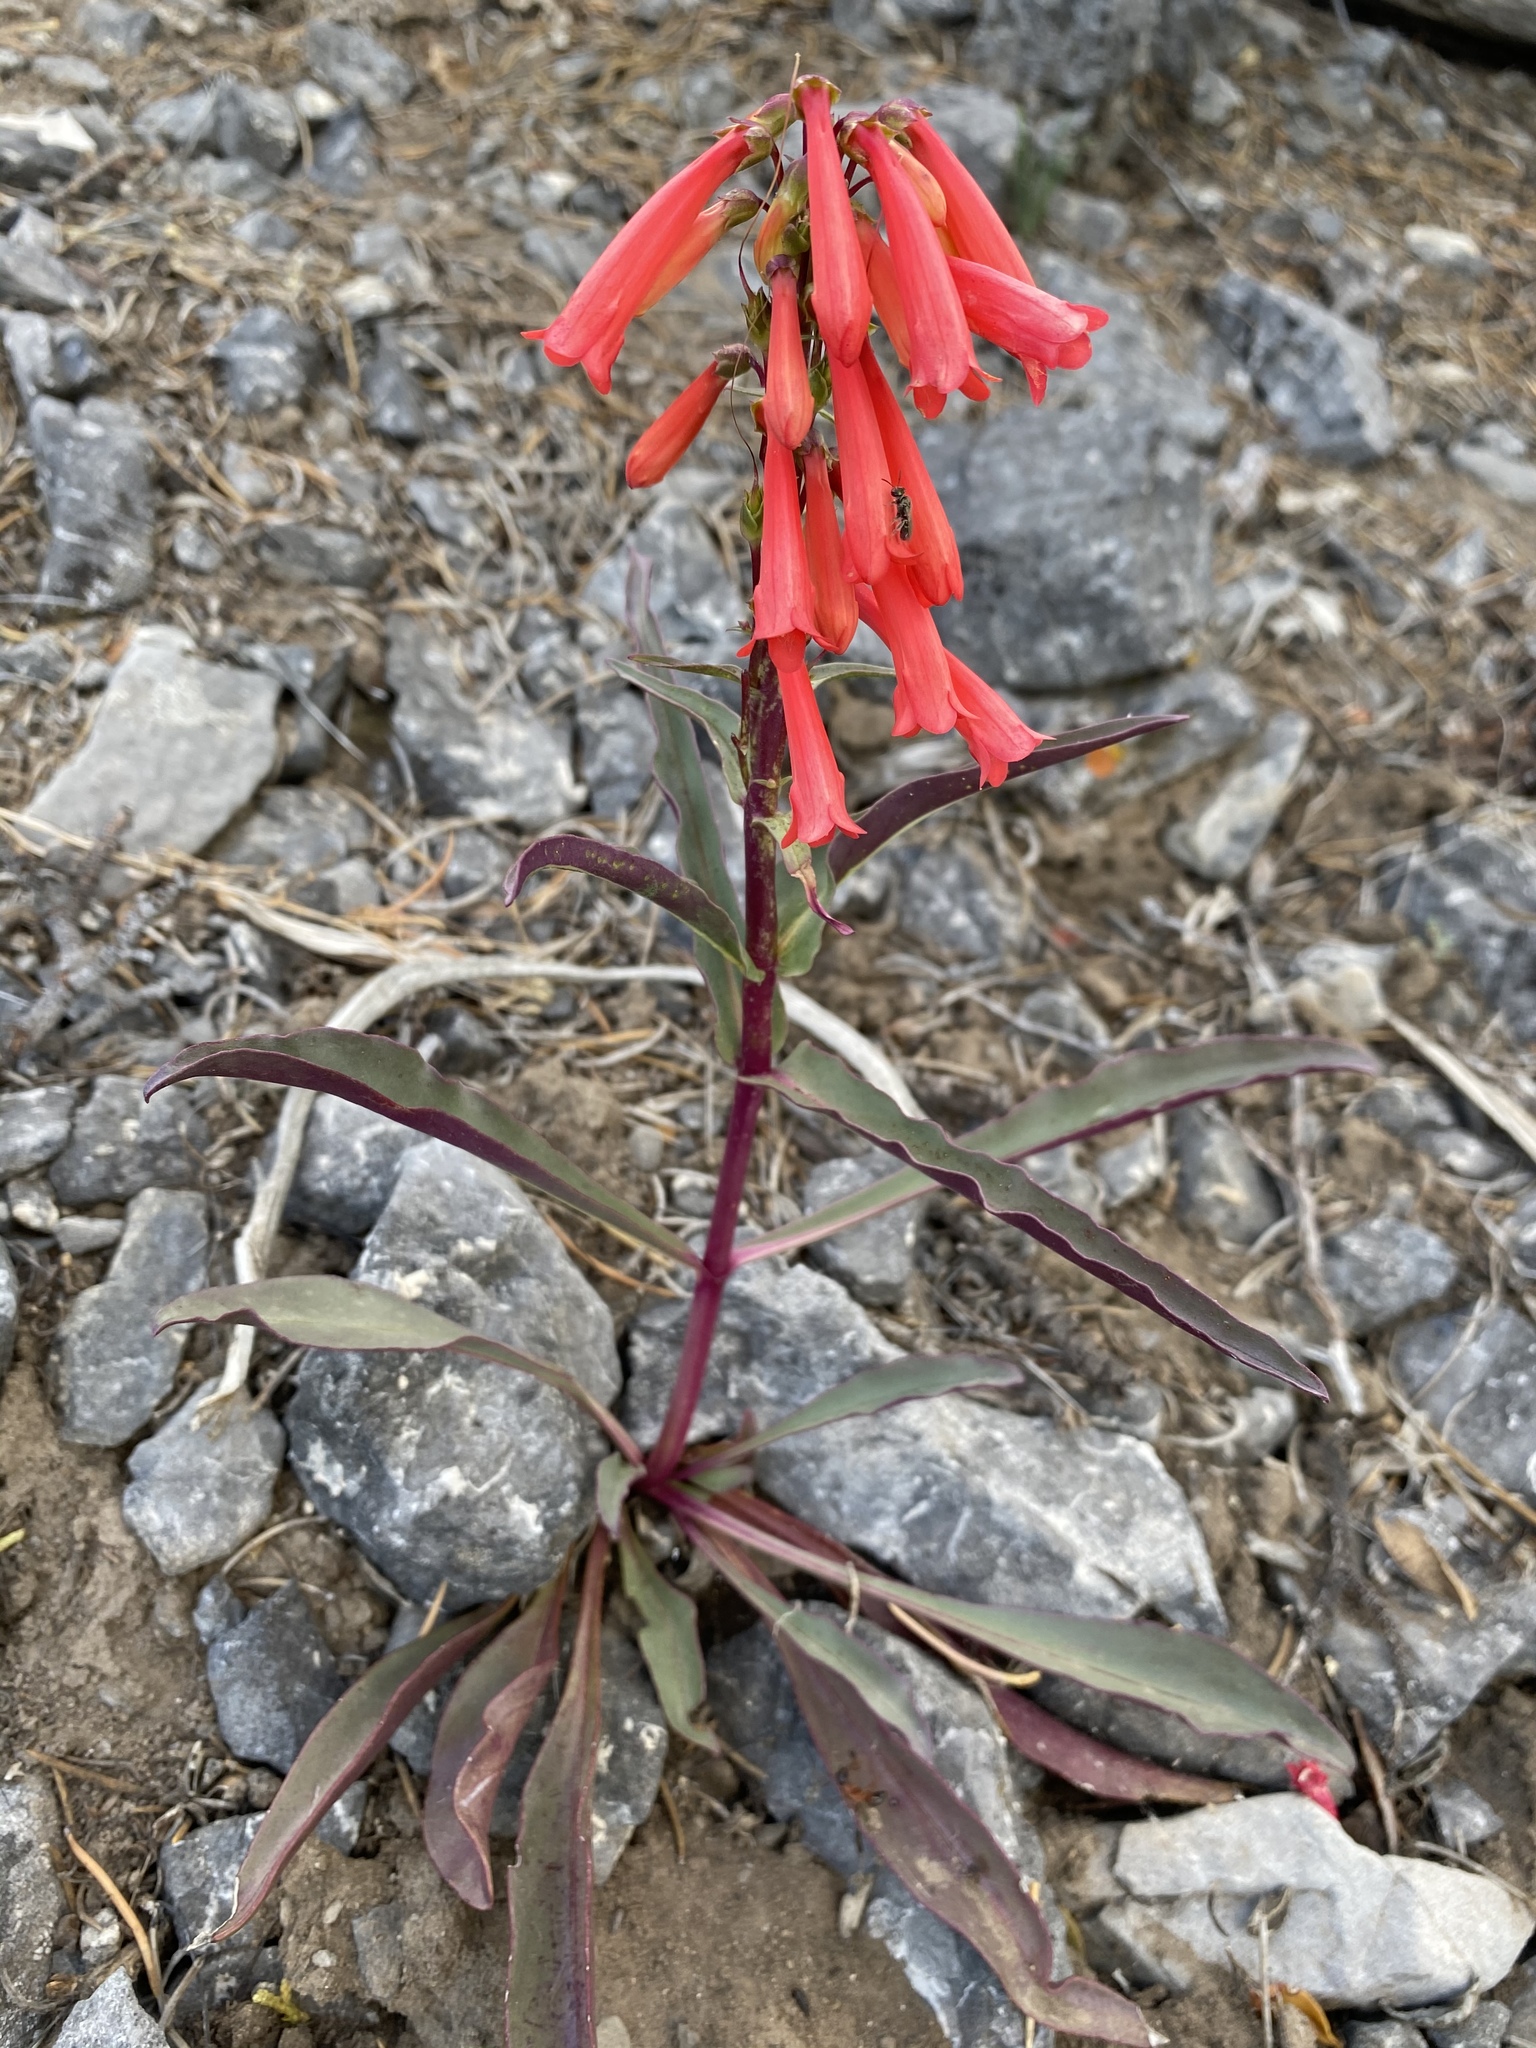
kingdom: Plantae
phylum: Tracheophyta
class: Magnoliopsida
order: Lamiales
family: Plantaginaceae
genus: Penstemon
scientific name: Penstemon eatonii
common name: Eaton's penstemon
